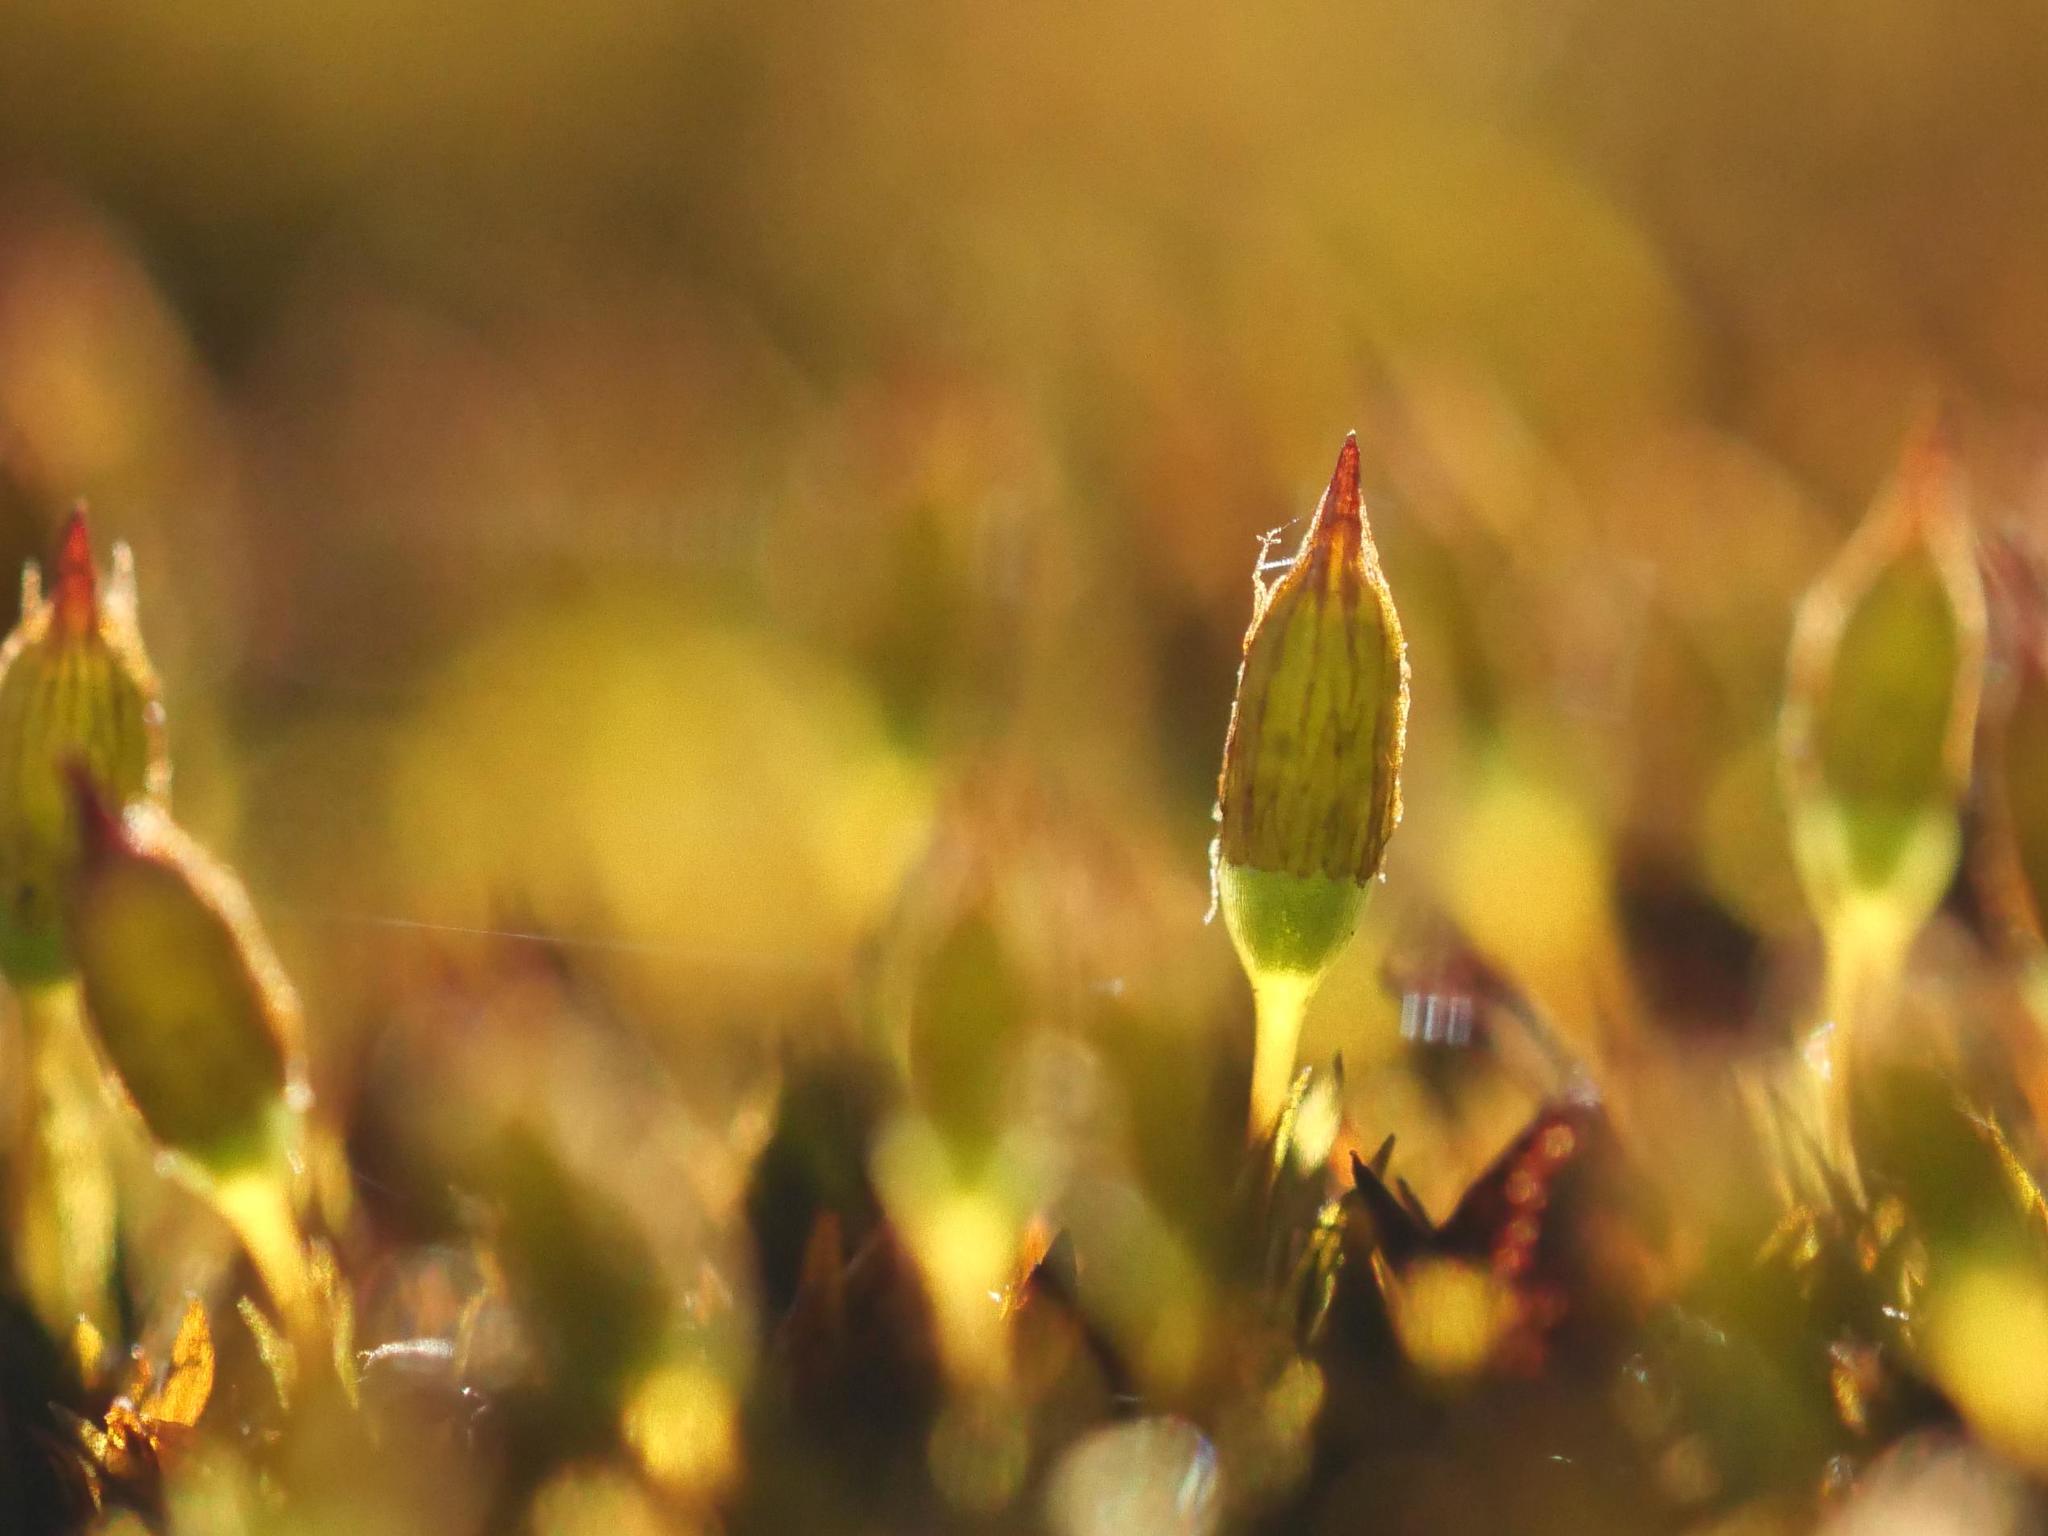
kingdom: Plantae
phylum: Bryophyta
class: Bryopsida
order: Orthotrichales
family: Orthotrichaceae
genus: Orthotrichum
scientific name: Orthotrichum anomalum
